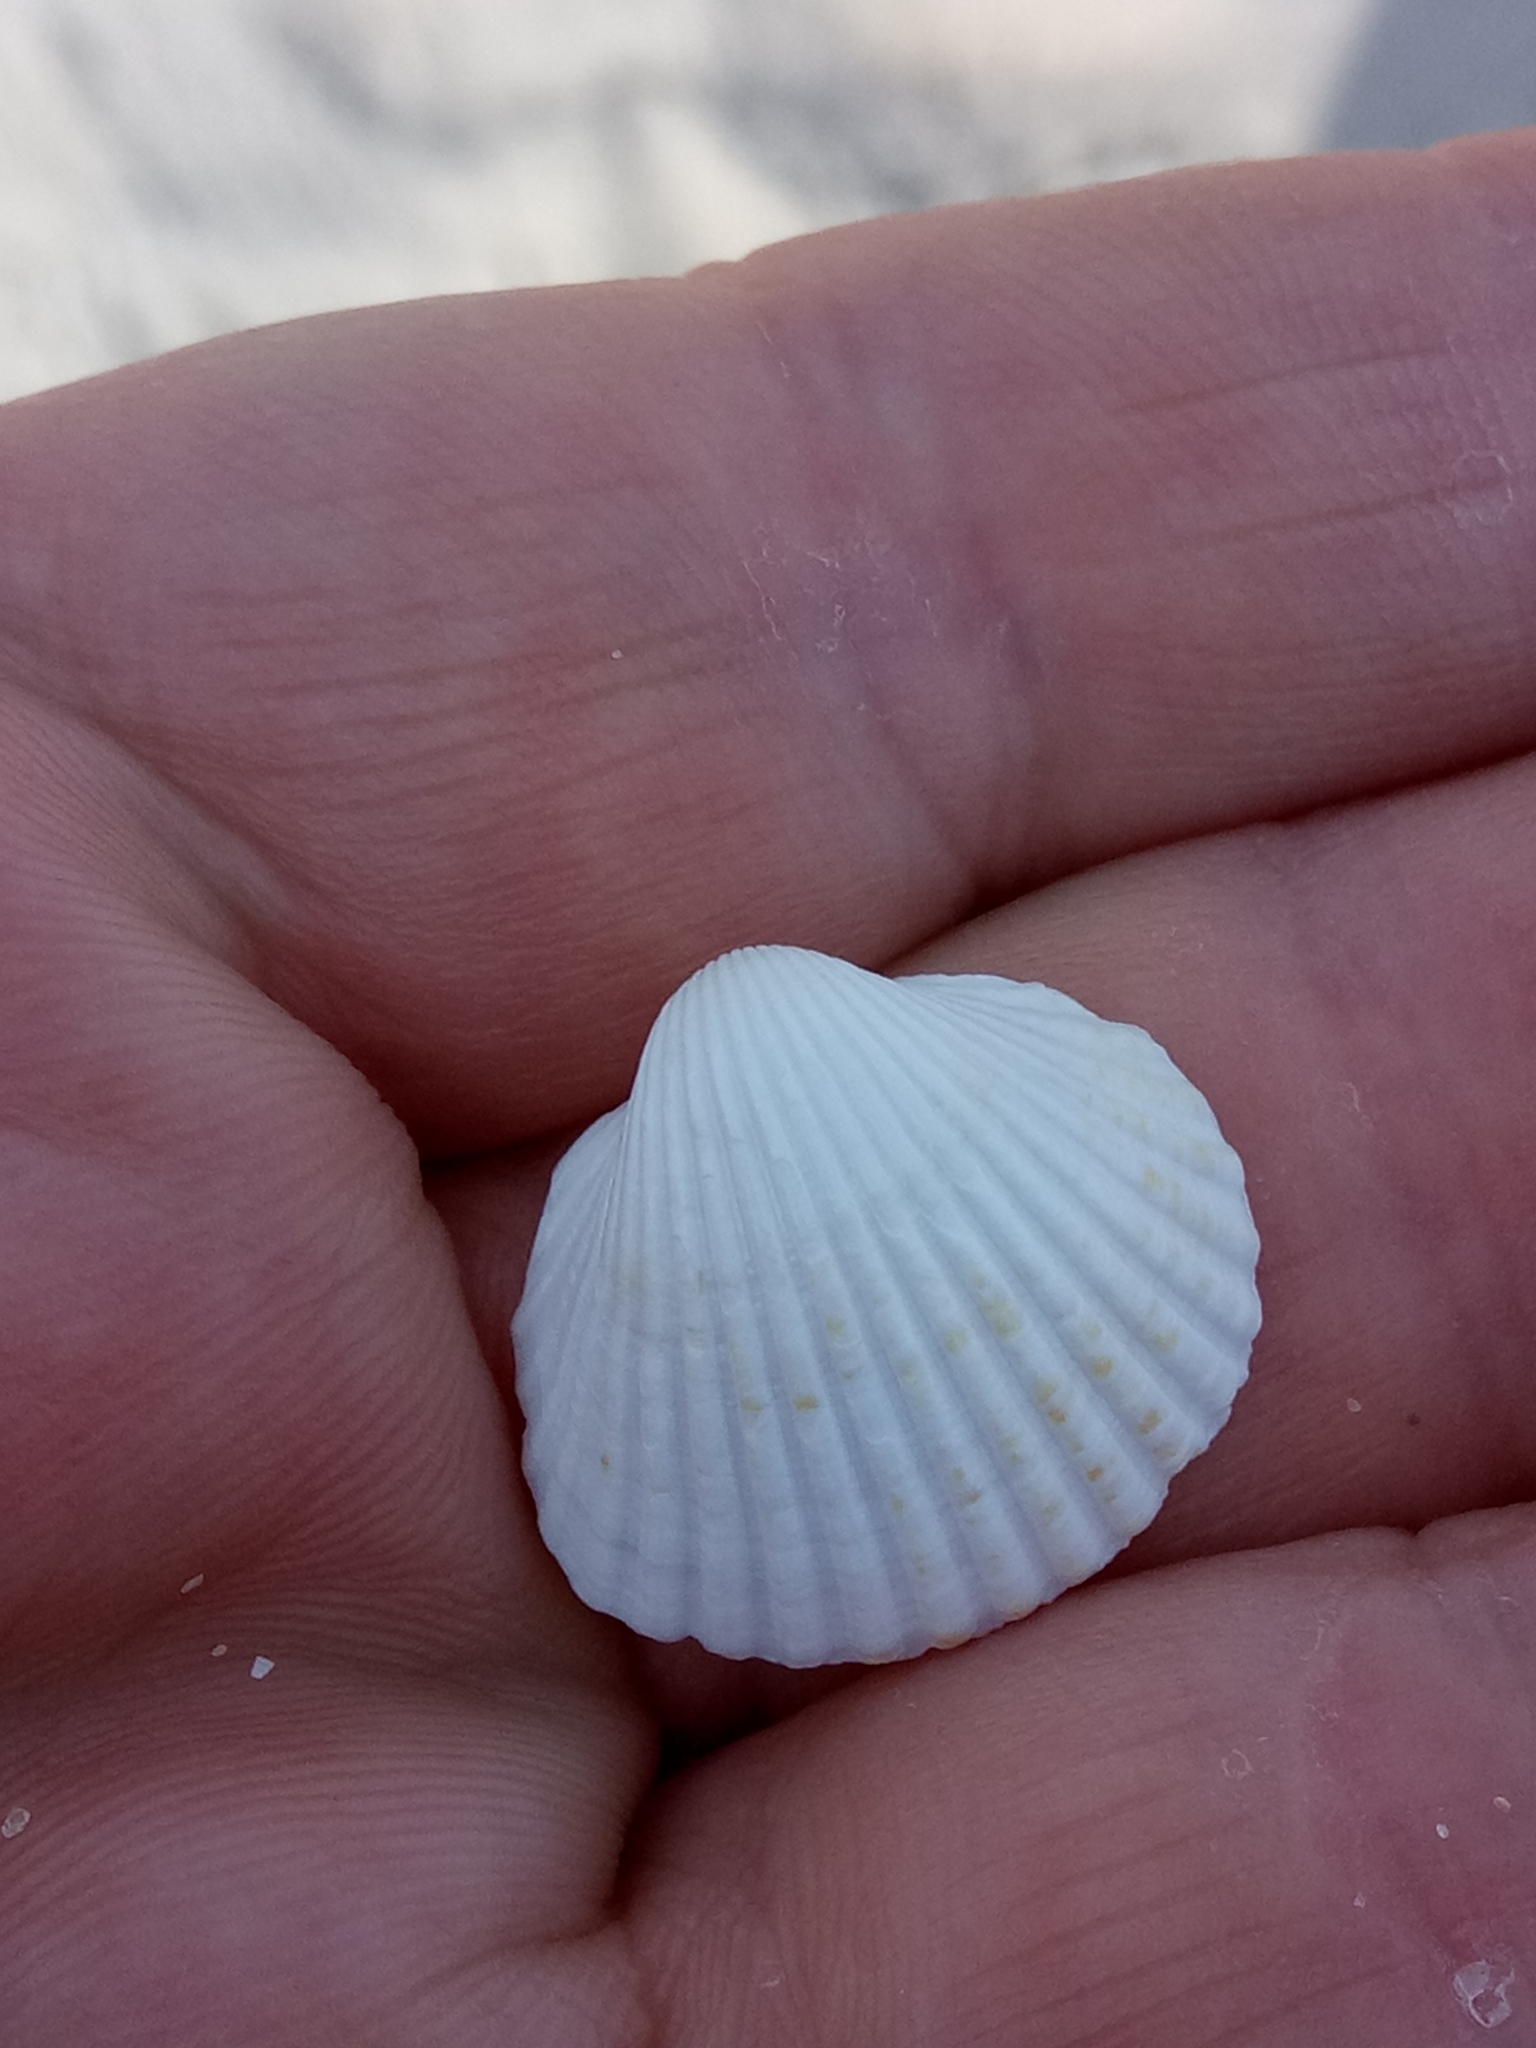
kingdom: Animalia
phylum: Mollusca
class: Bivalvia
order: Cardiida
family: Cardiidae
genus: Cerastoderma
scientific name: Cerastoderma glaucum
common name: Lagoon cockle
